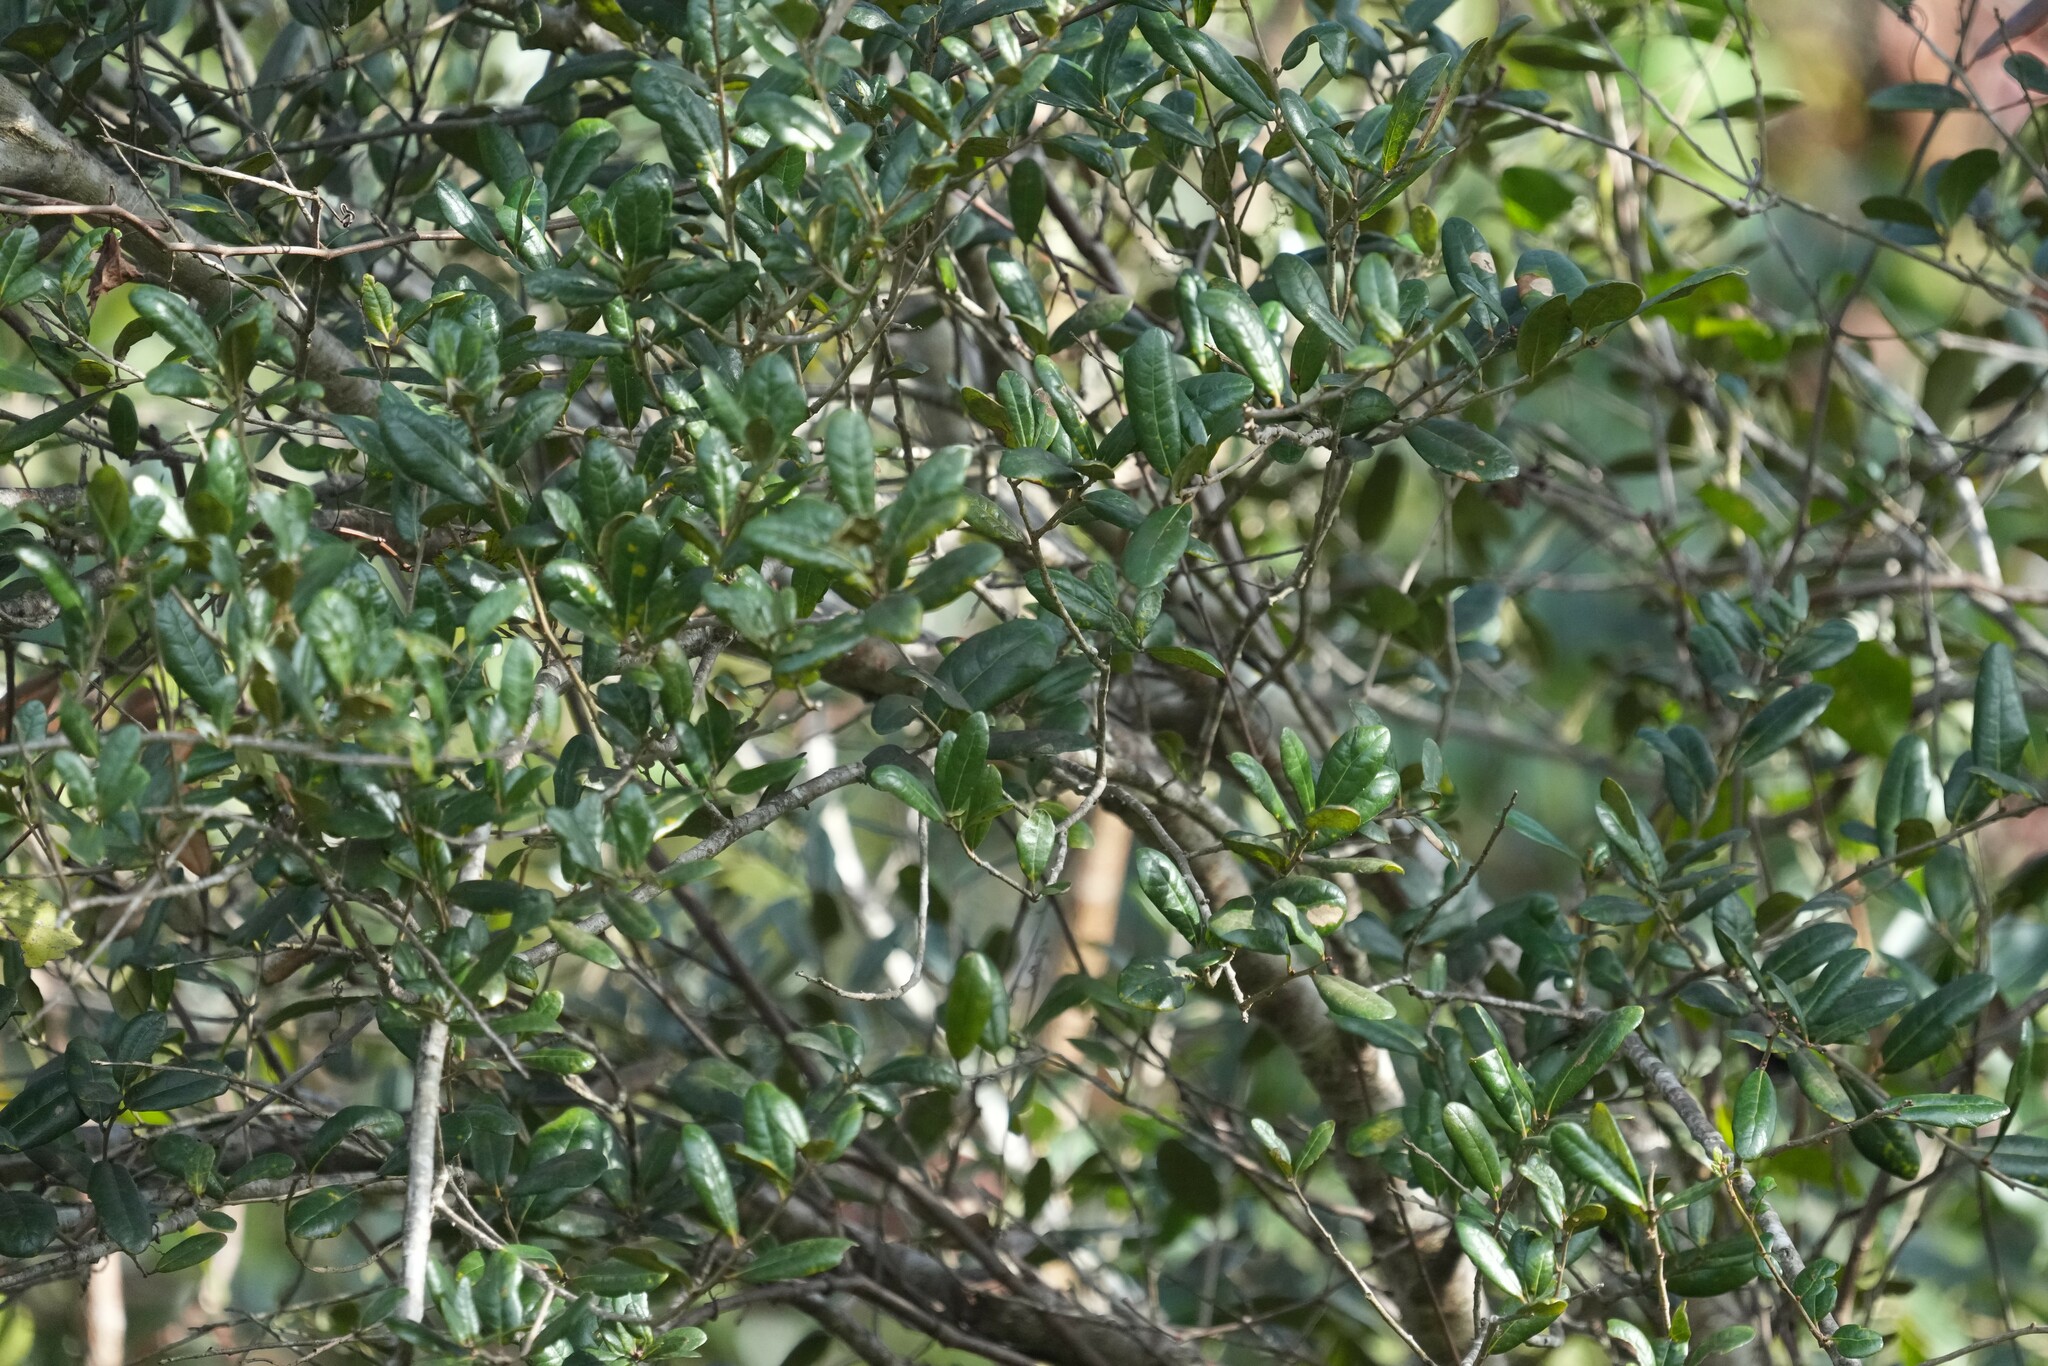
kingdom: Plantae
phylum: Tracheophyta
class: Magnoliopsida
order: Fagales
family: Fagaceae
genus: Quercus
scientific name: Quercus virginiana
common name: Southern live oak
